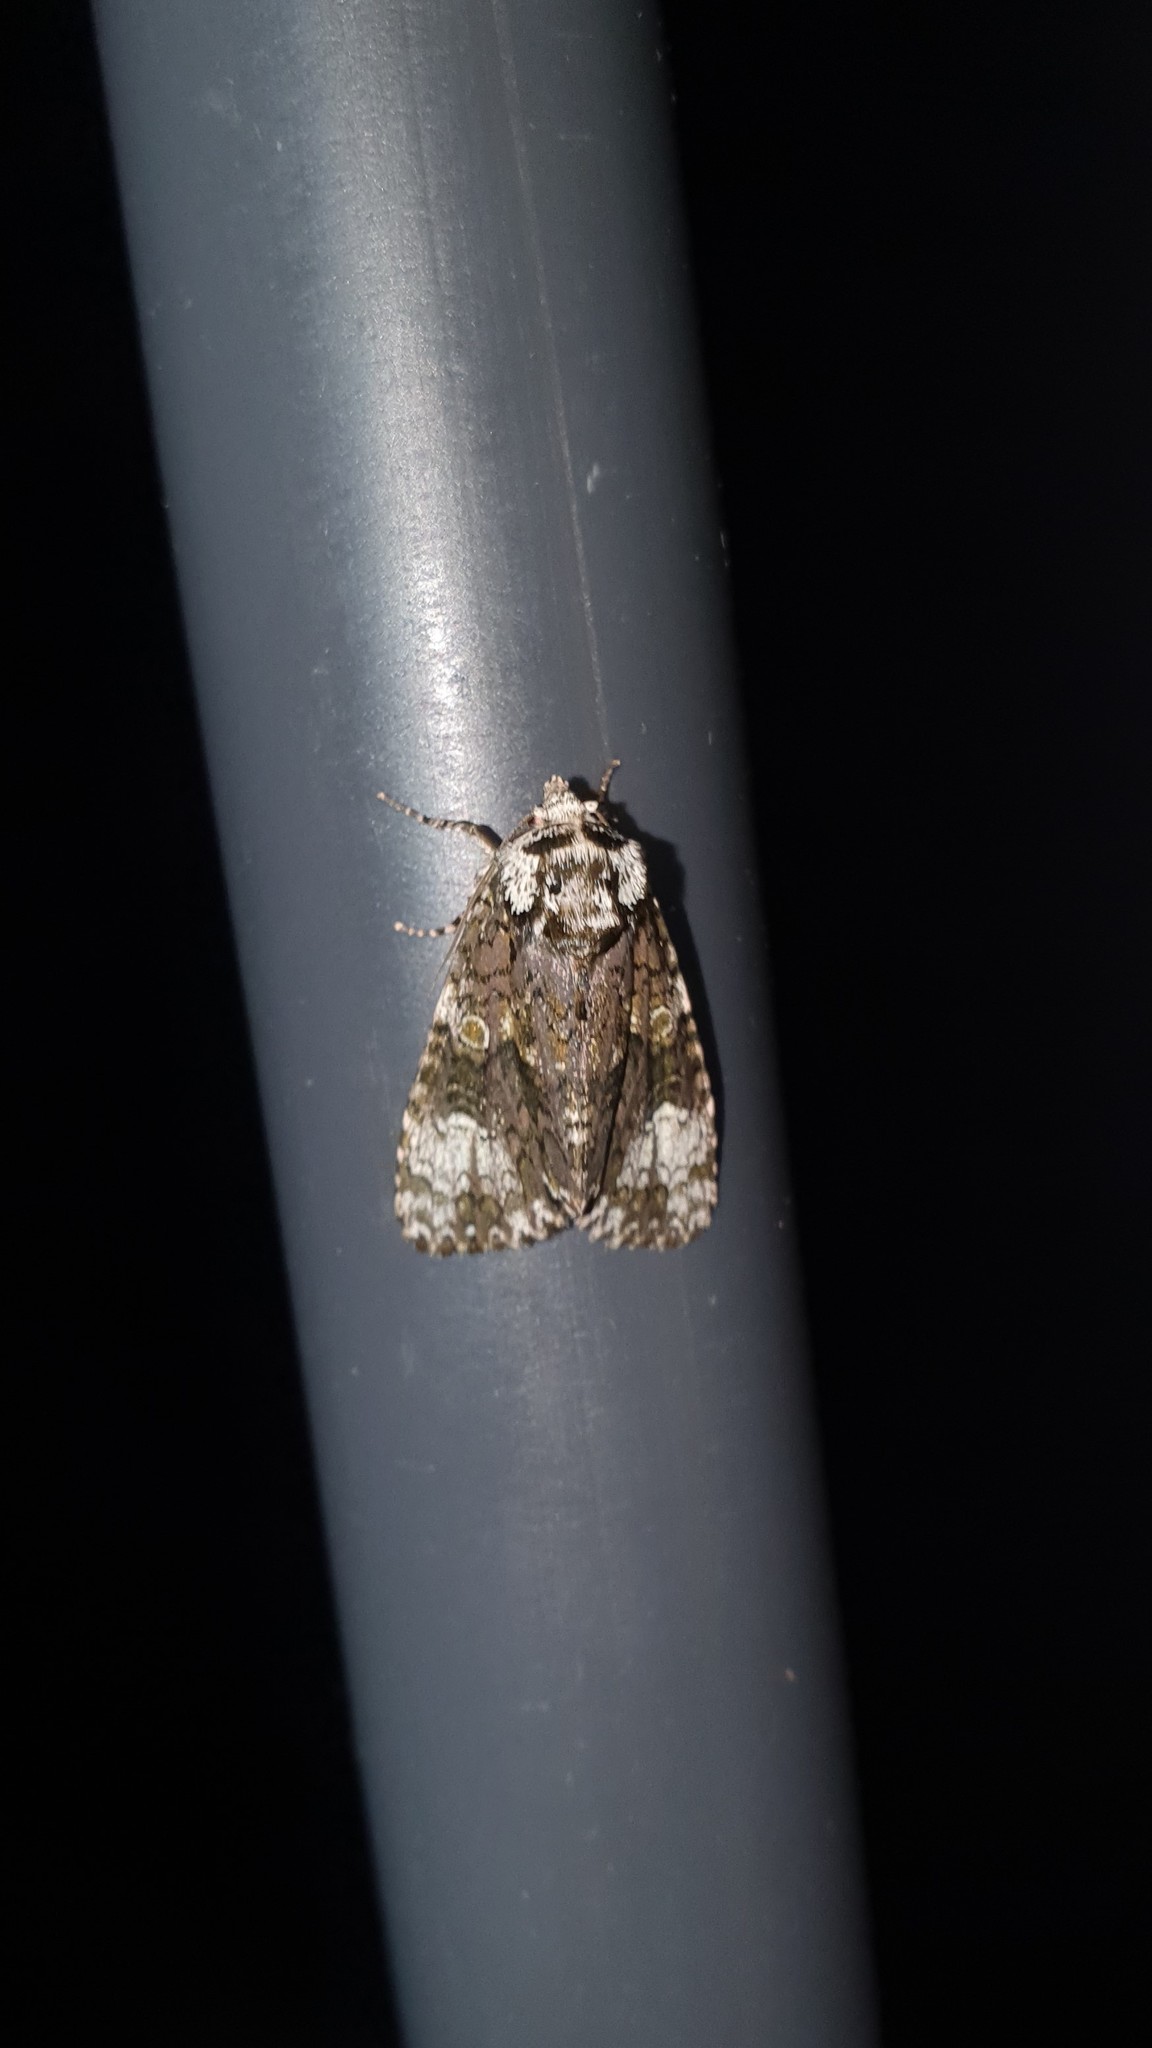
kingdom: Animalia
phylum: Arthropoda
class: Insecta
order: Lepidoptera
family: Noctuidae
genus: Craniophora
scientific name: Craniophora ligustri
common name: Coronet
